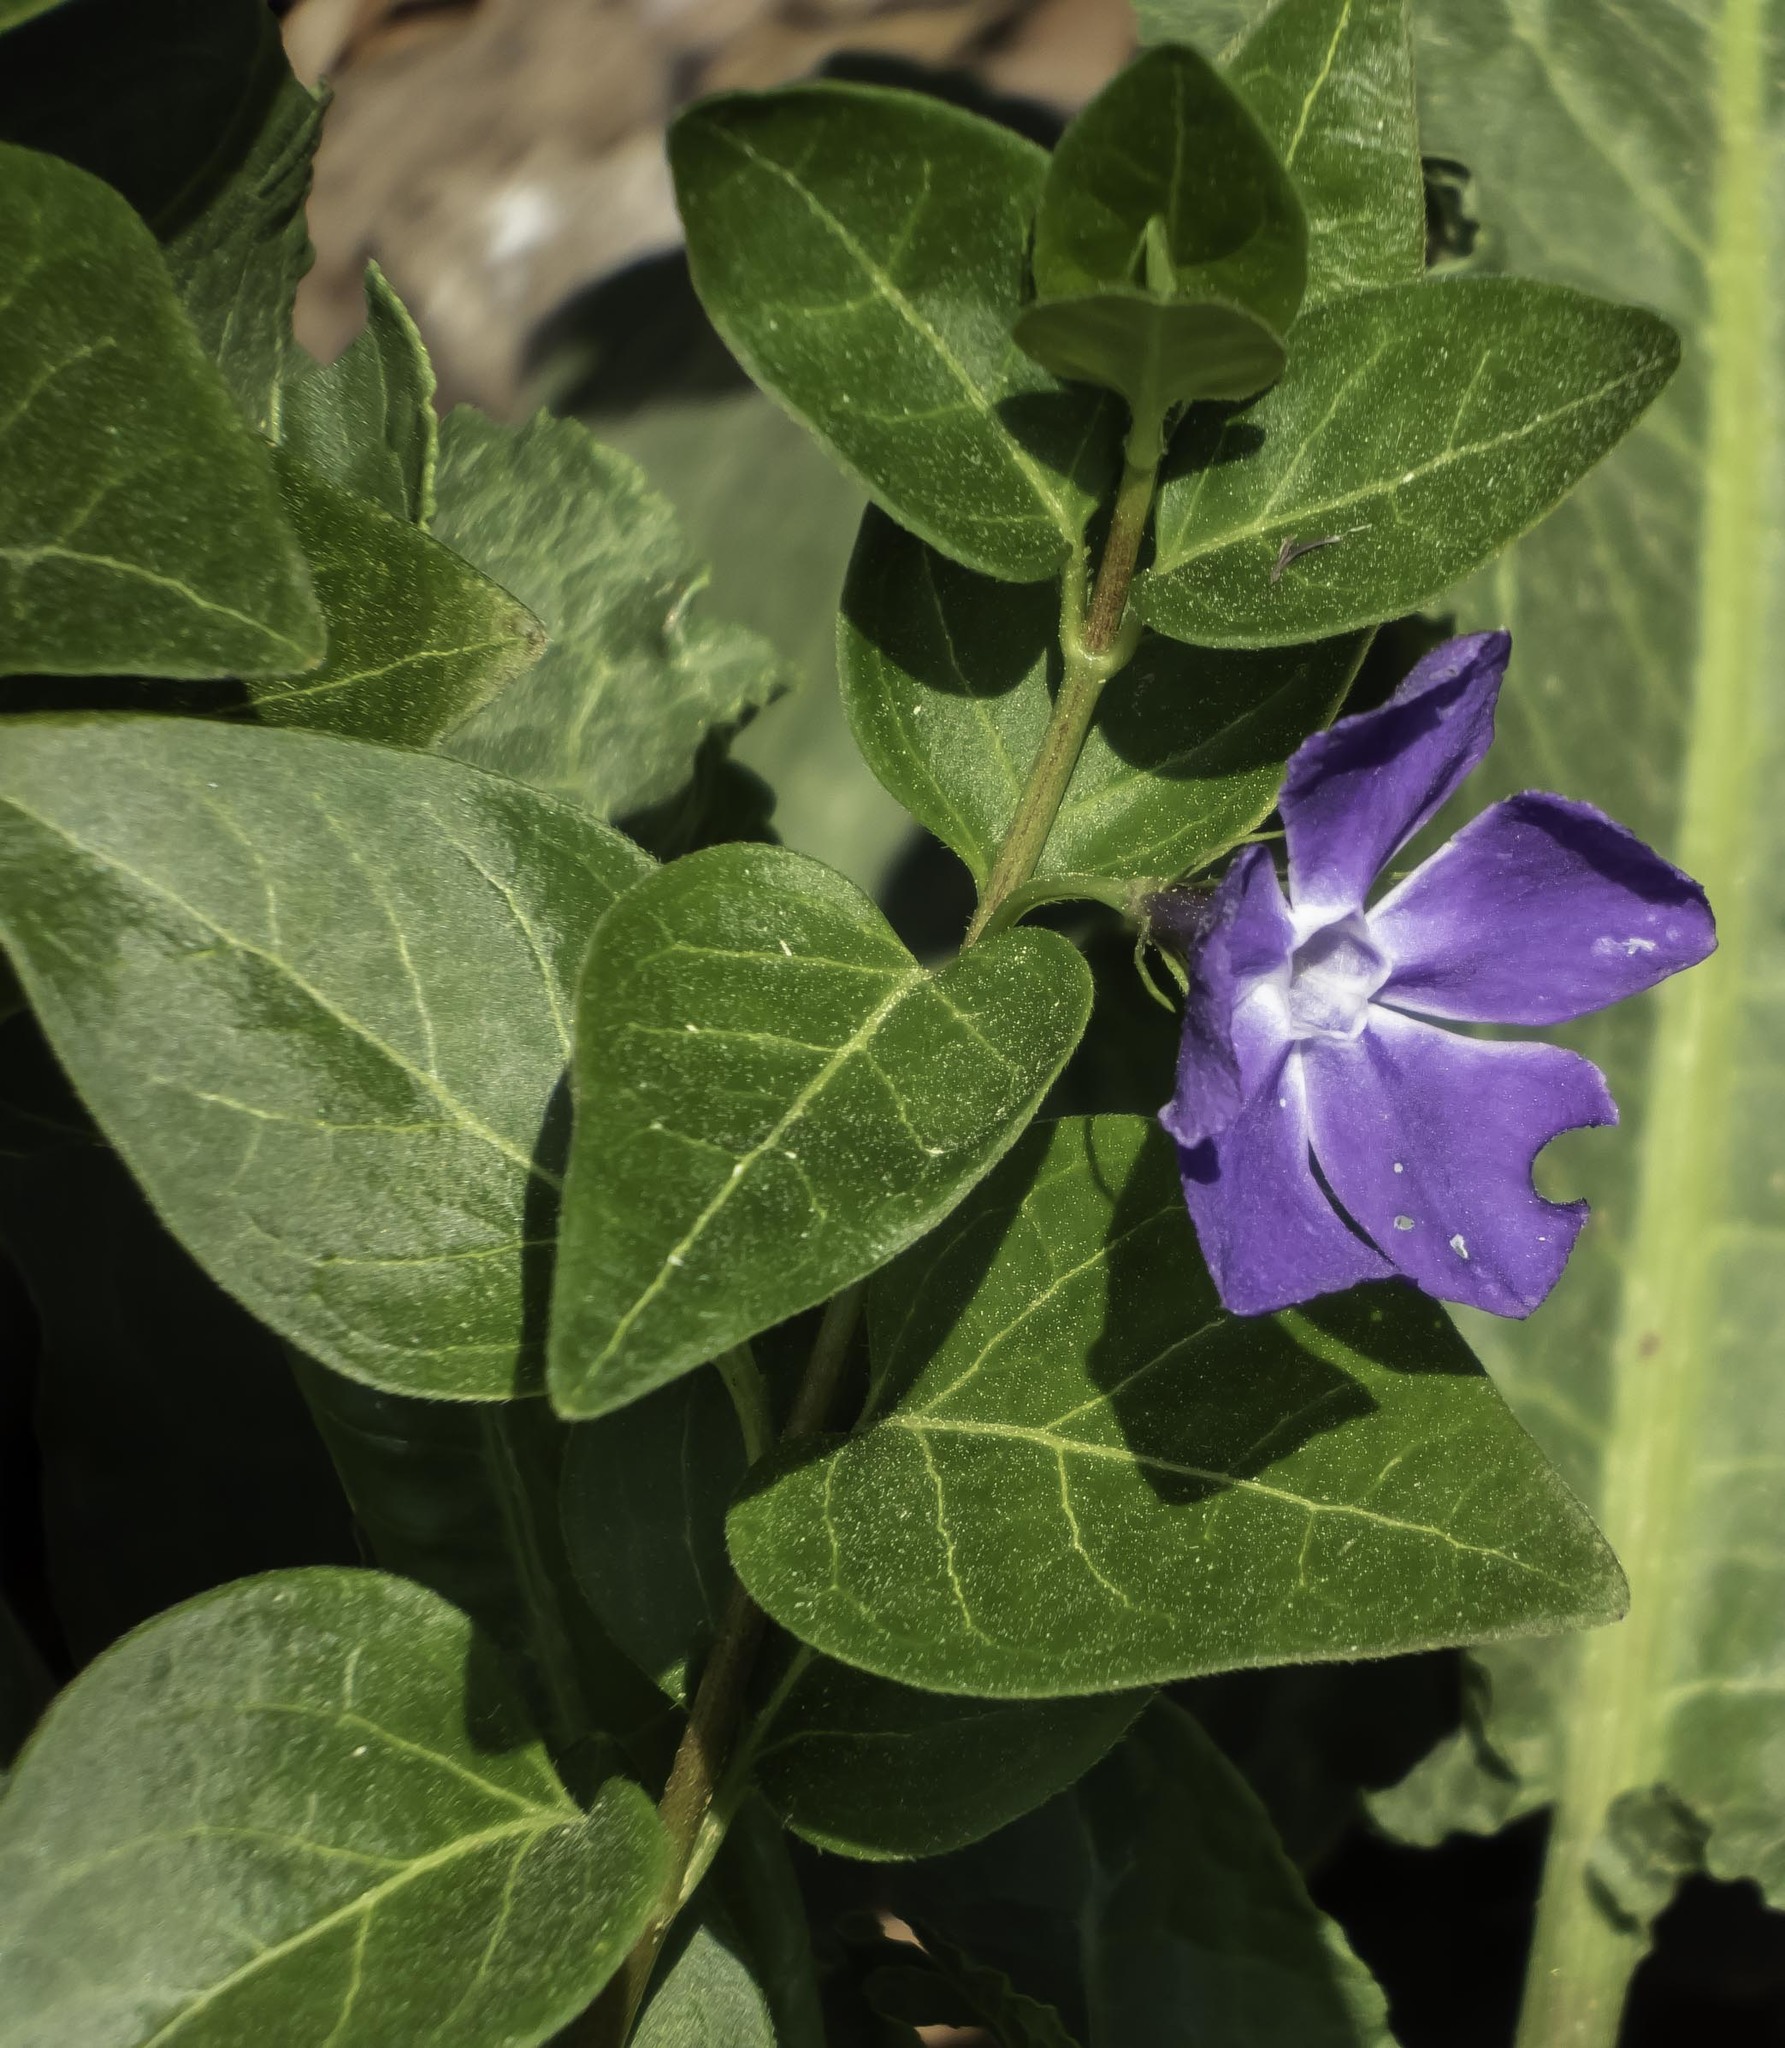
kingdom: Plantae
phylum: Tracheophyta
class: Magnoliopsida
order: Gentianales
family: Apocynaceae
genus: Vinca
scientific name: Vinca major
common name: Greater periwinkle
